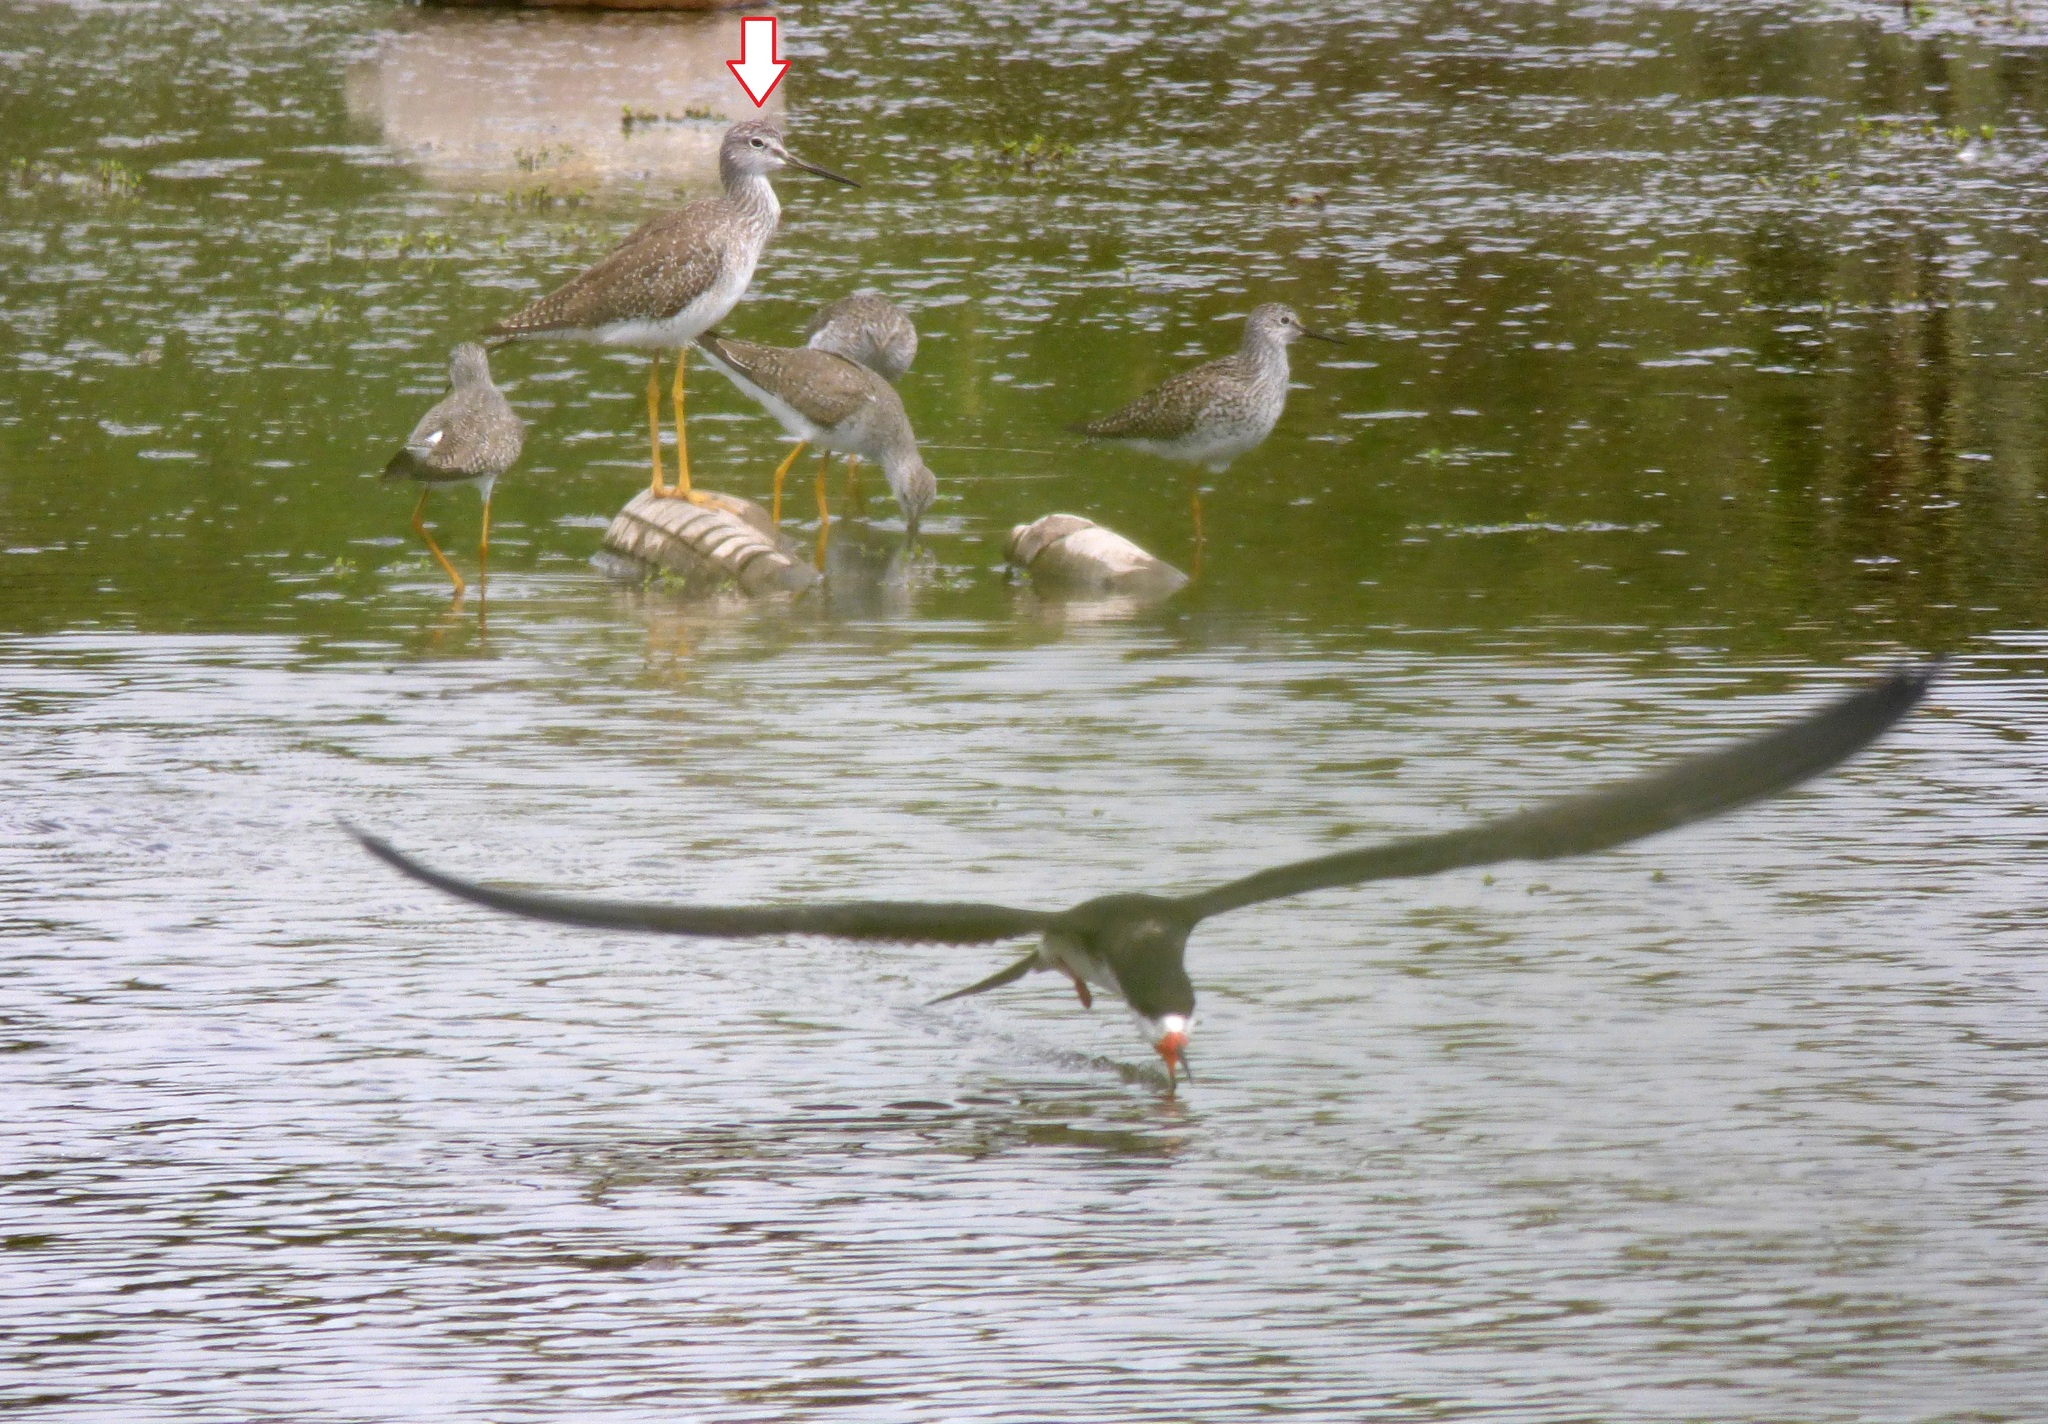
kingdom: Animalia
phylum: Chordata
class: Aves
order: Charadriiformes
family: Scolopacidae
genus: Tringa
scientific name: Tringa melanoleuca
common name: Greater yellowlegs
